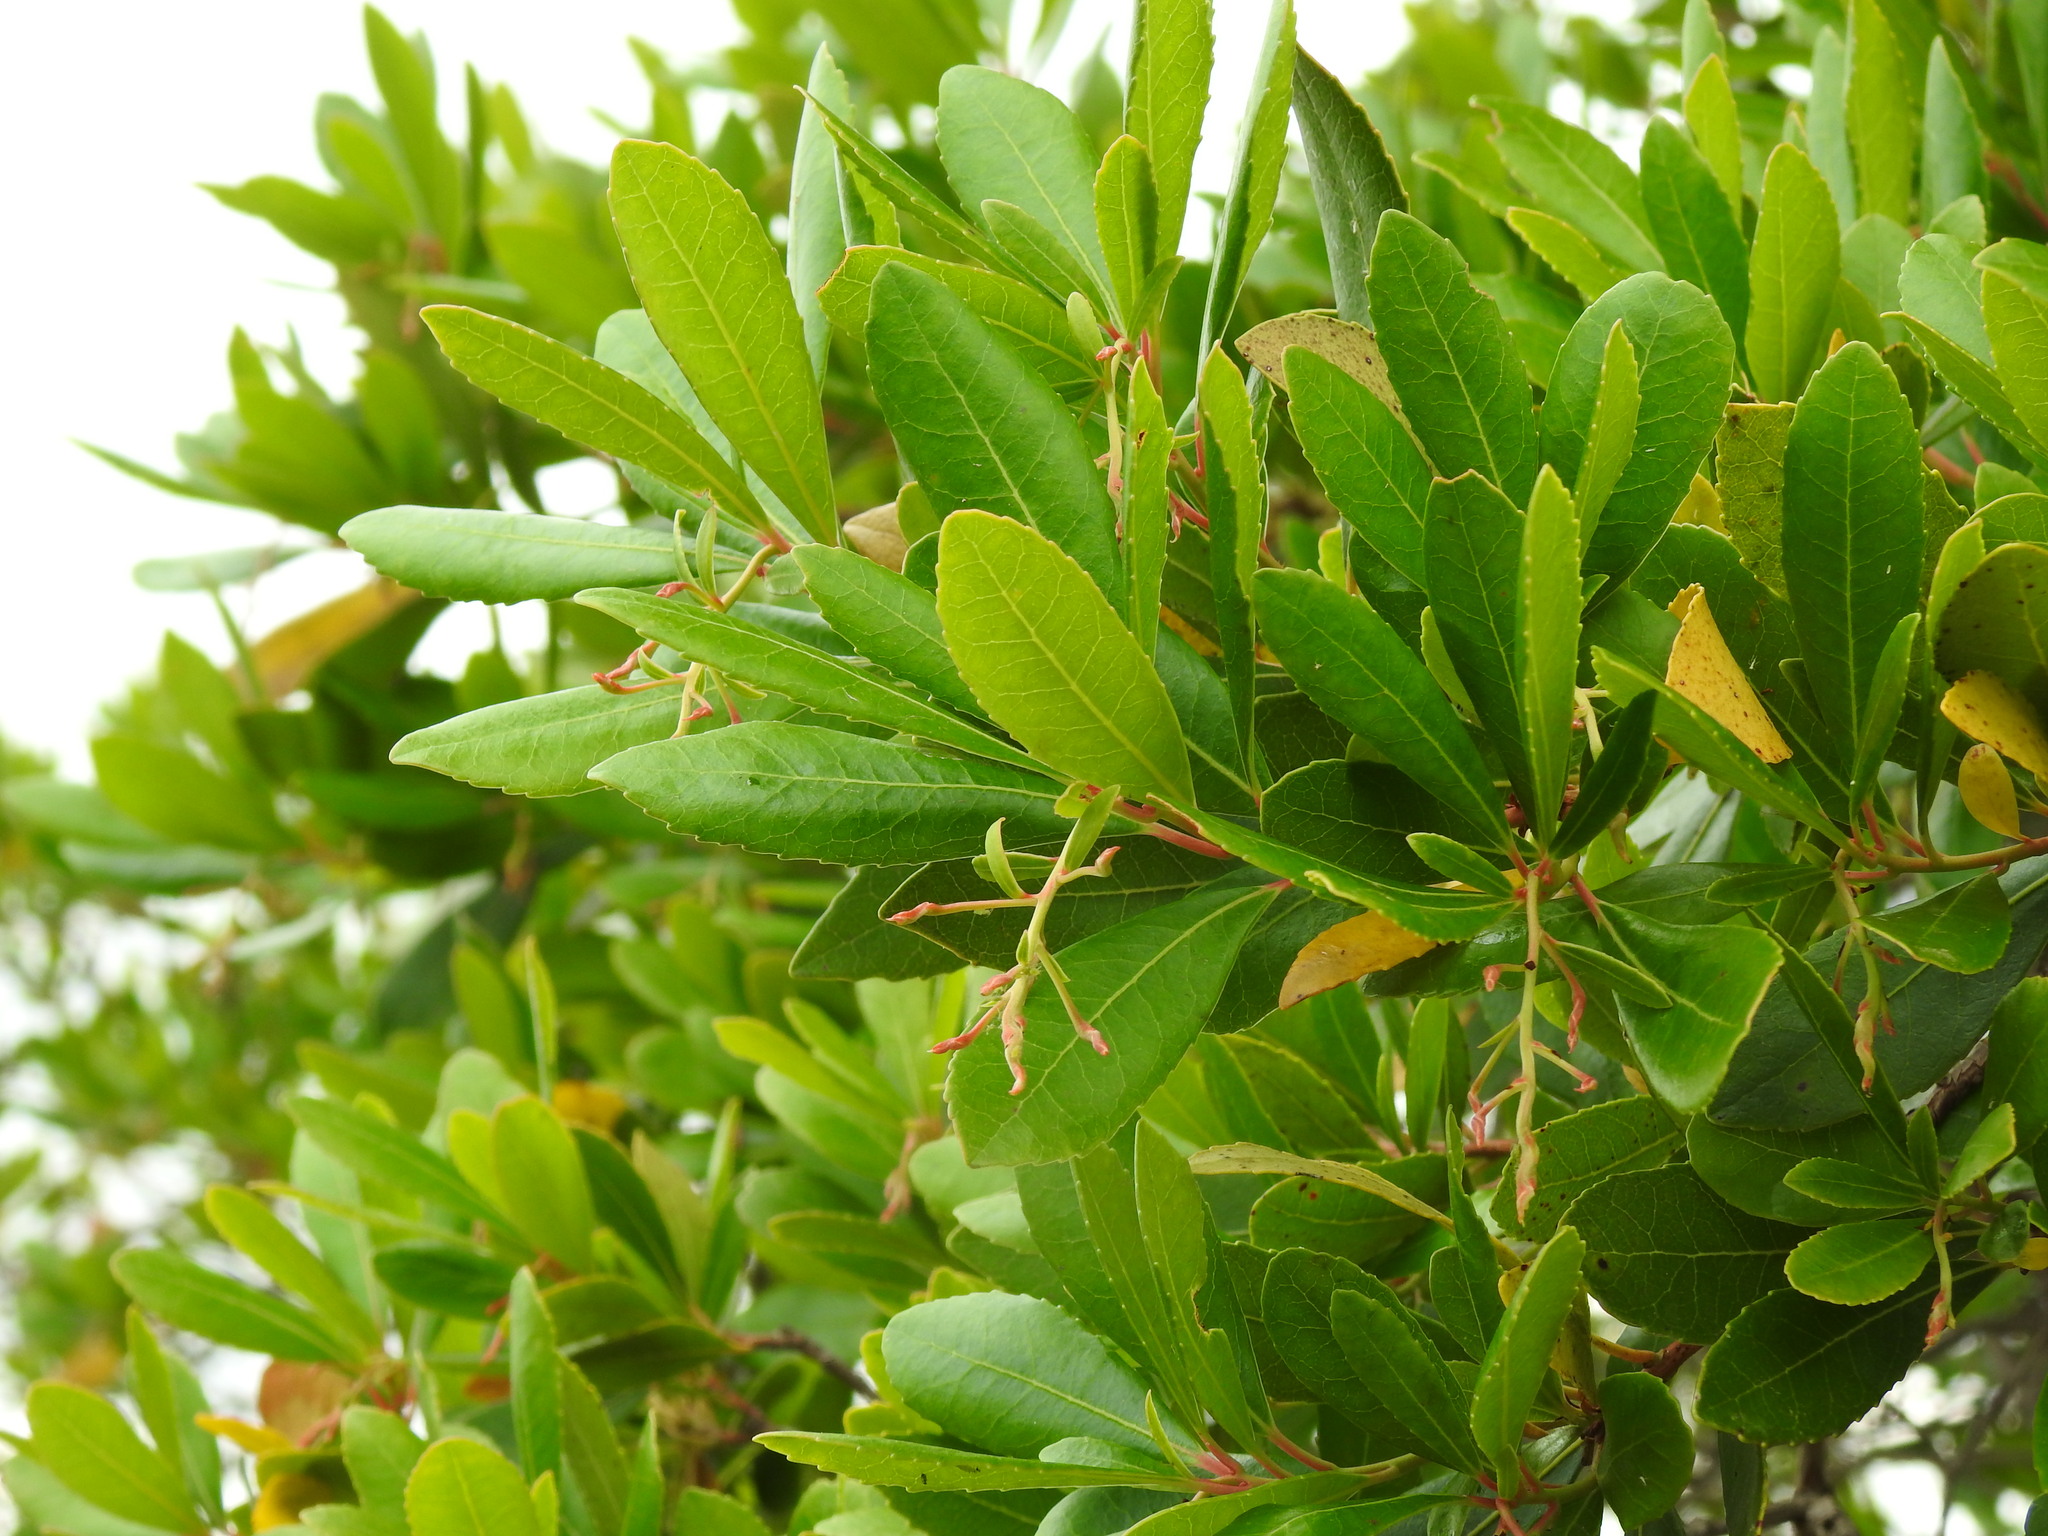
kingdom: Plantae
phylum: Tracheophyta
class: Magnoliopsida
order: Ericales
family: Ericaceae
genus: Arbutus
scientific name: Arbutus unedo
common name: Strawberry-tree
